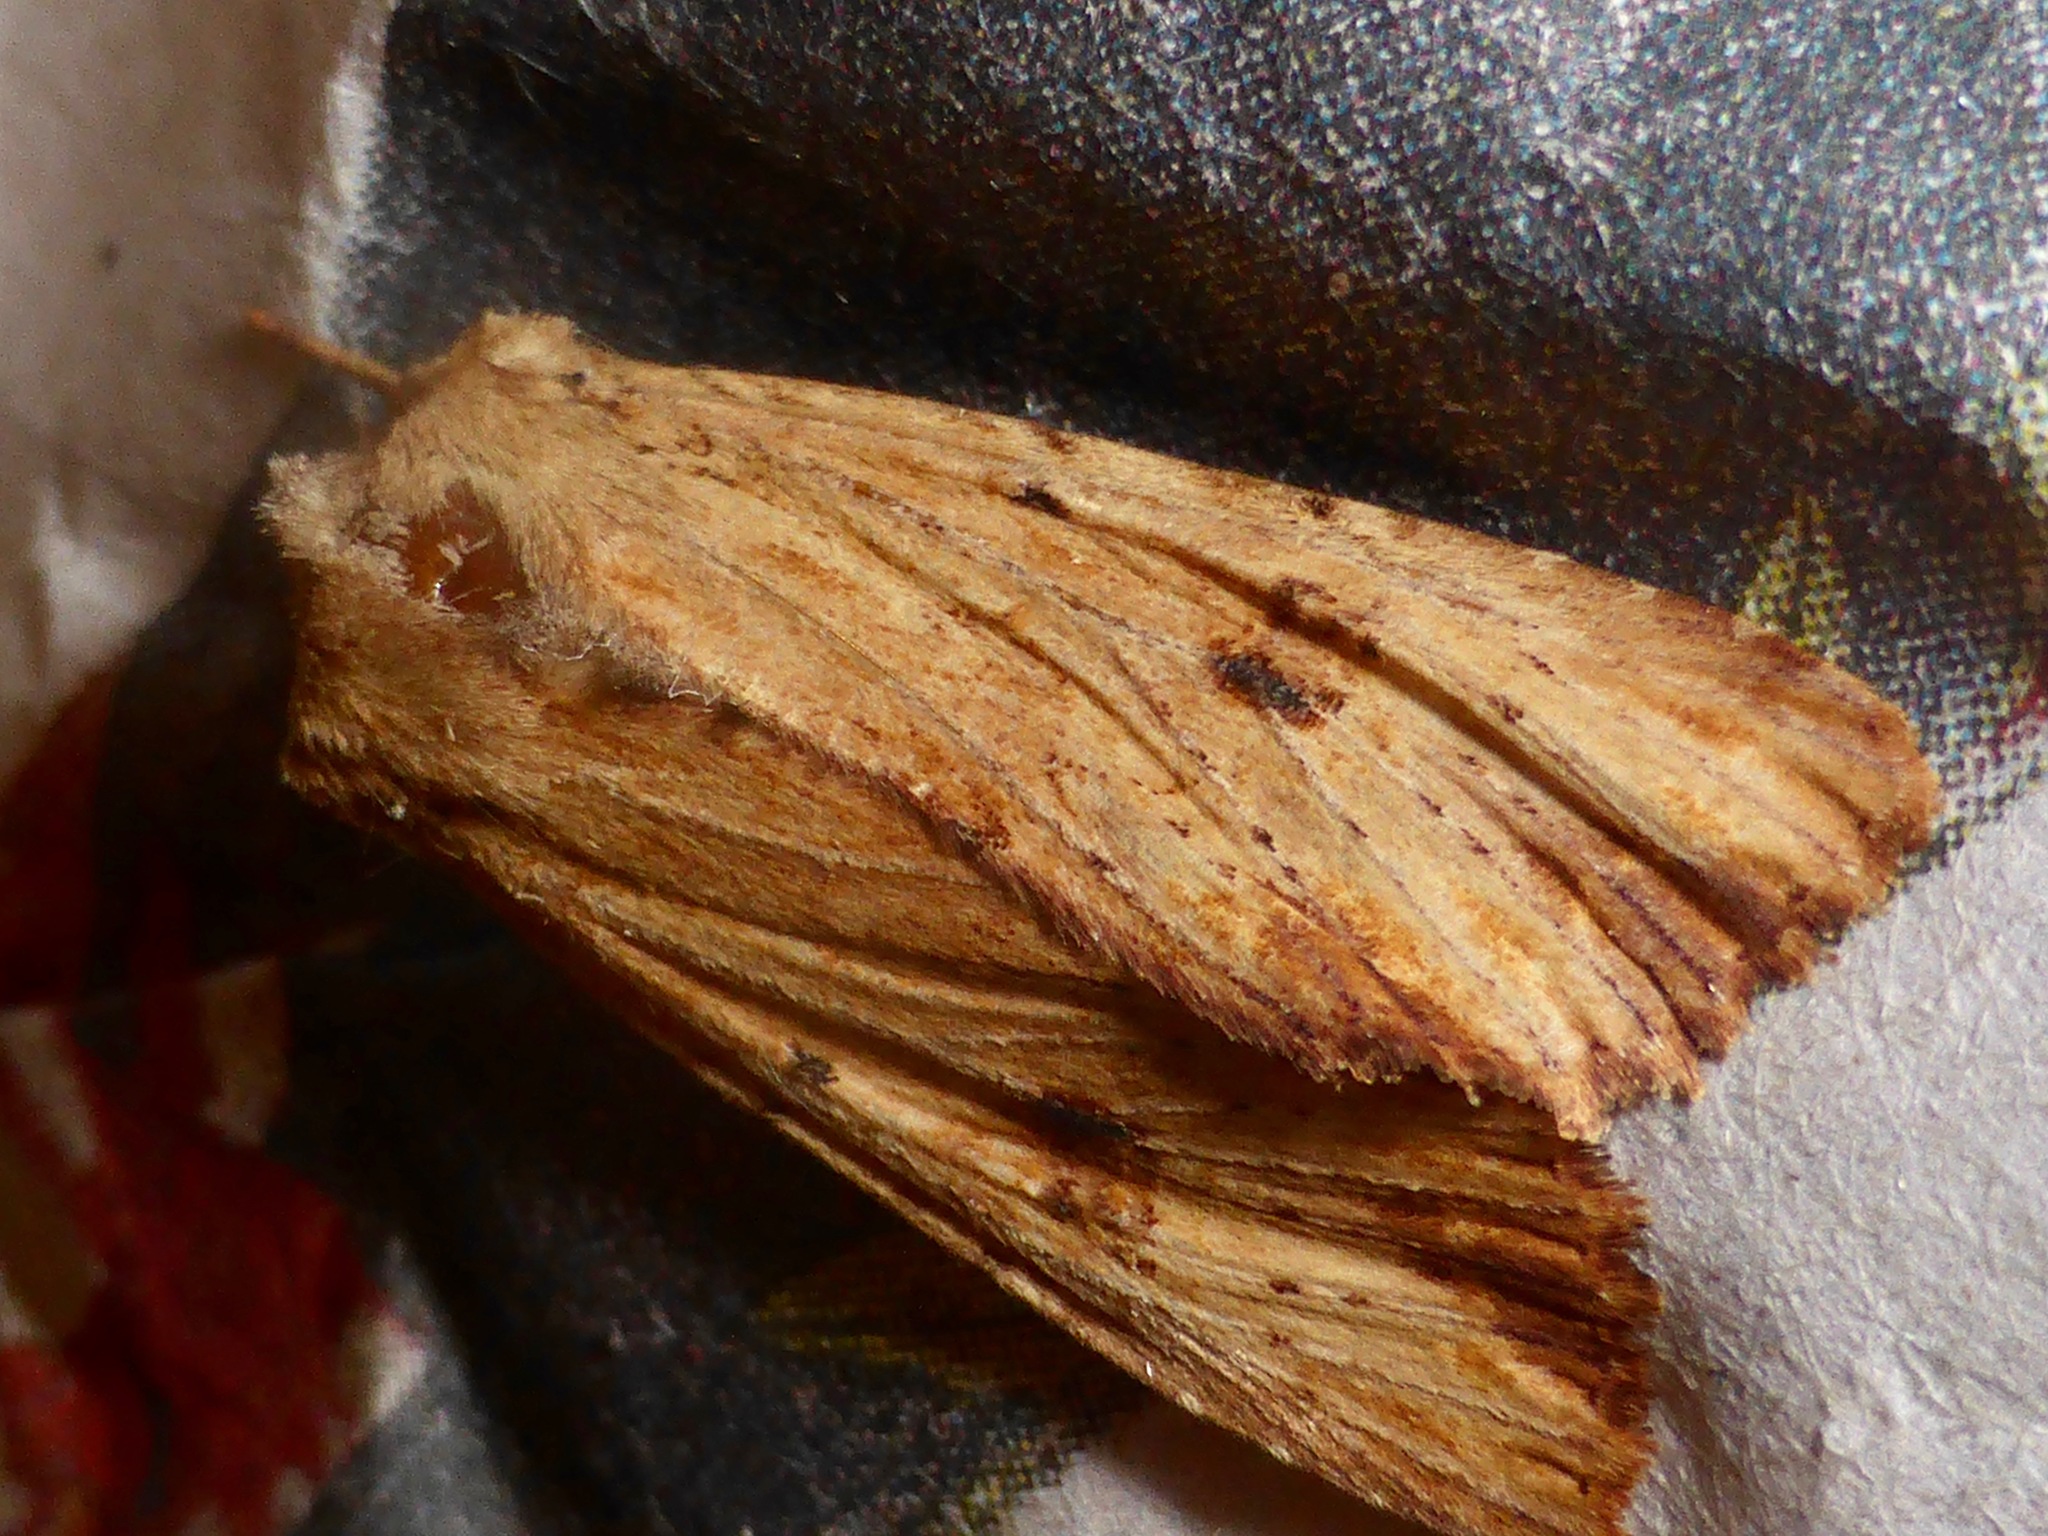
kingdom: Animalia
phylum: Arthropoda
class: Insecta
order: Lepidoptera
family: Noctuidae
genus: Ichneutica
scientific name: Ichneutica
